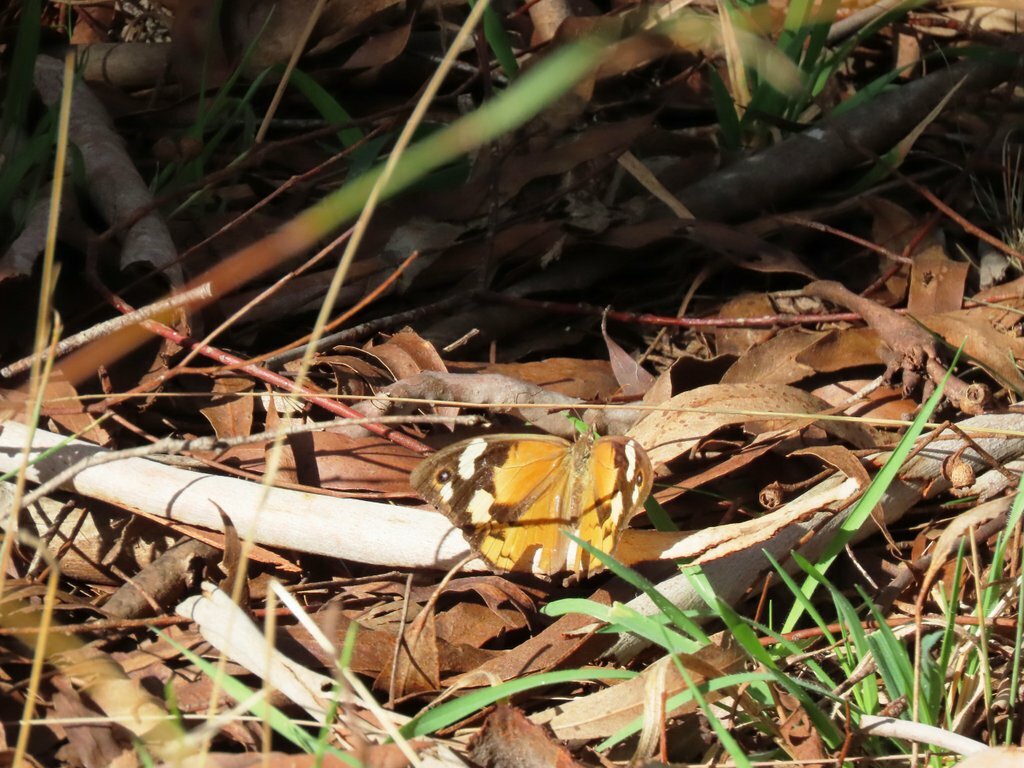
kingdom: Animalia
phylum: Arthropoda
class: Insecta
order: Lepidoptera
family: Nymphalidae
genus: Heteronympha
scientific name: Heteronympha merope
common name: Common brown
